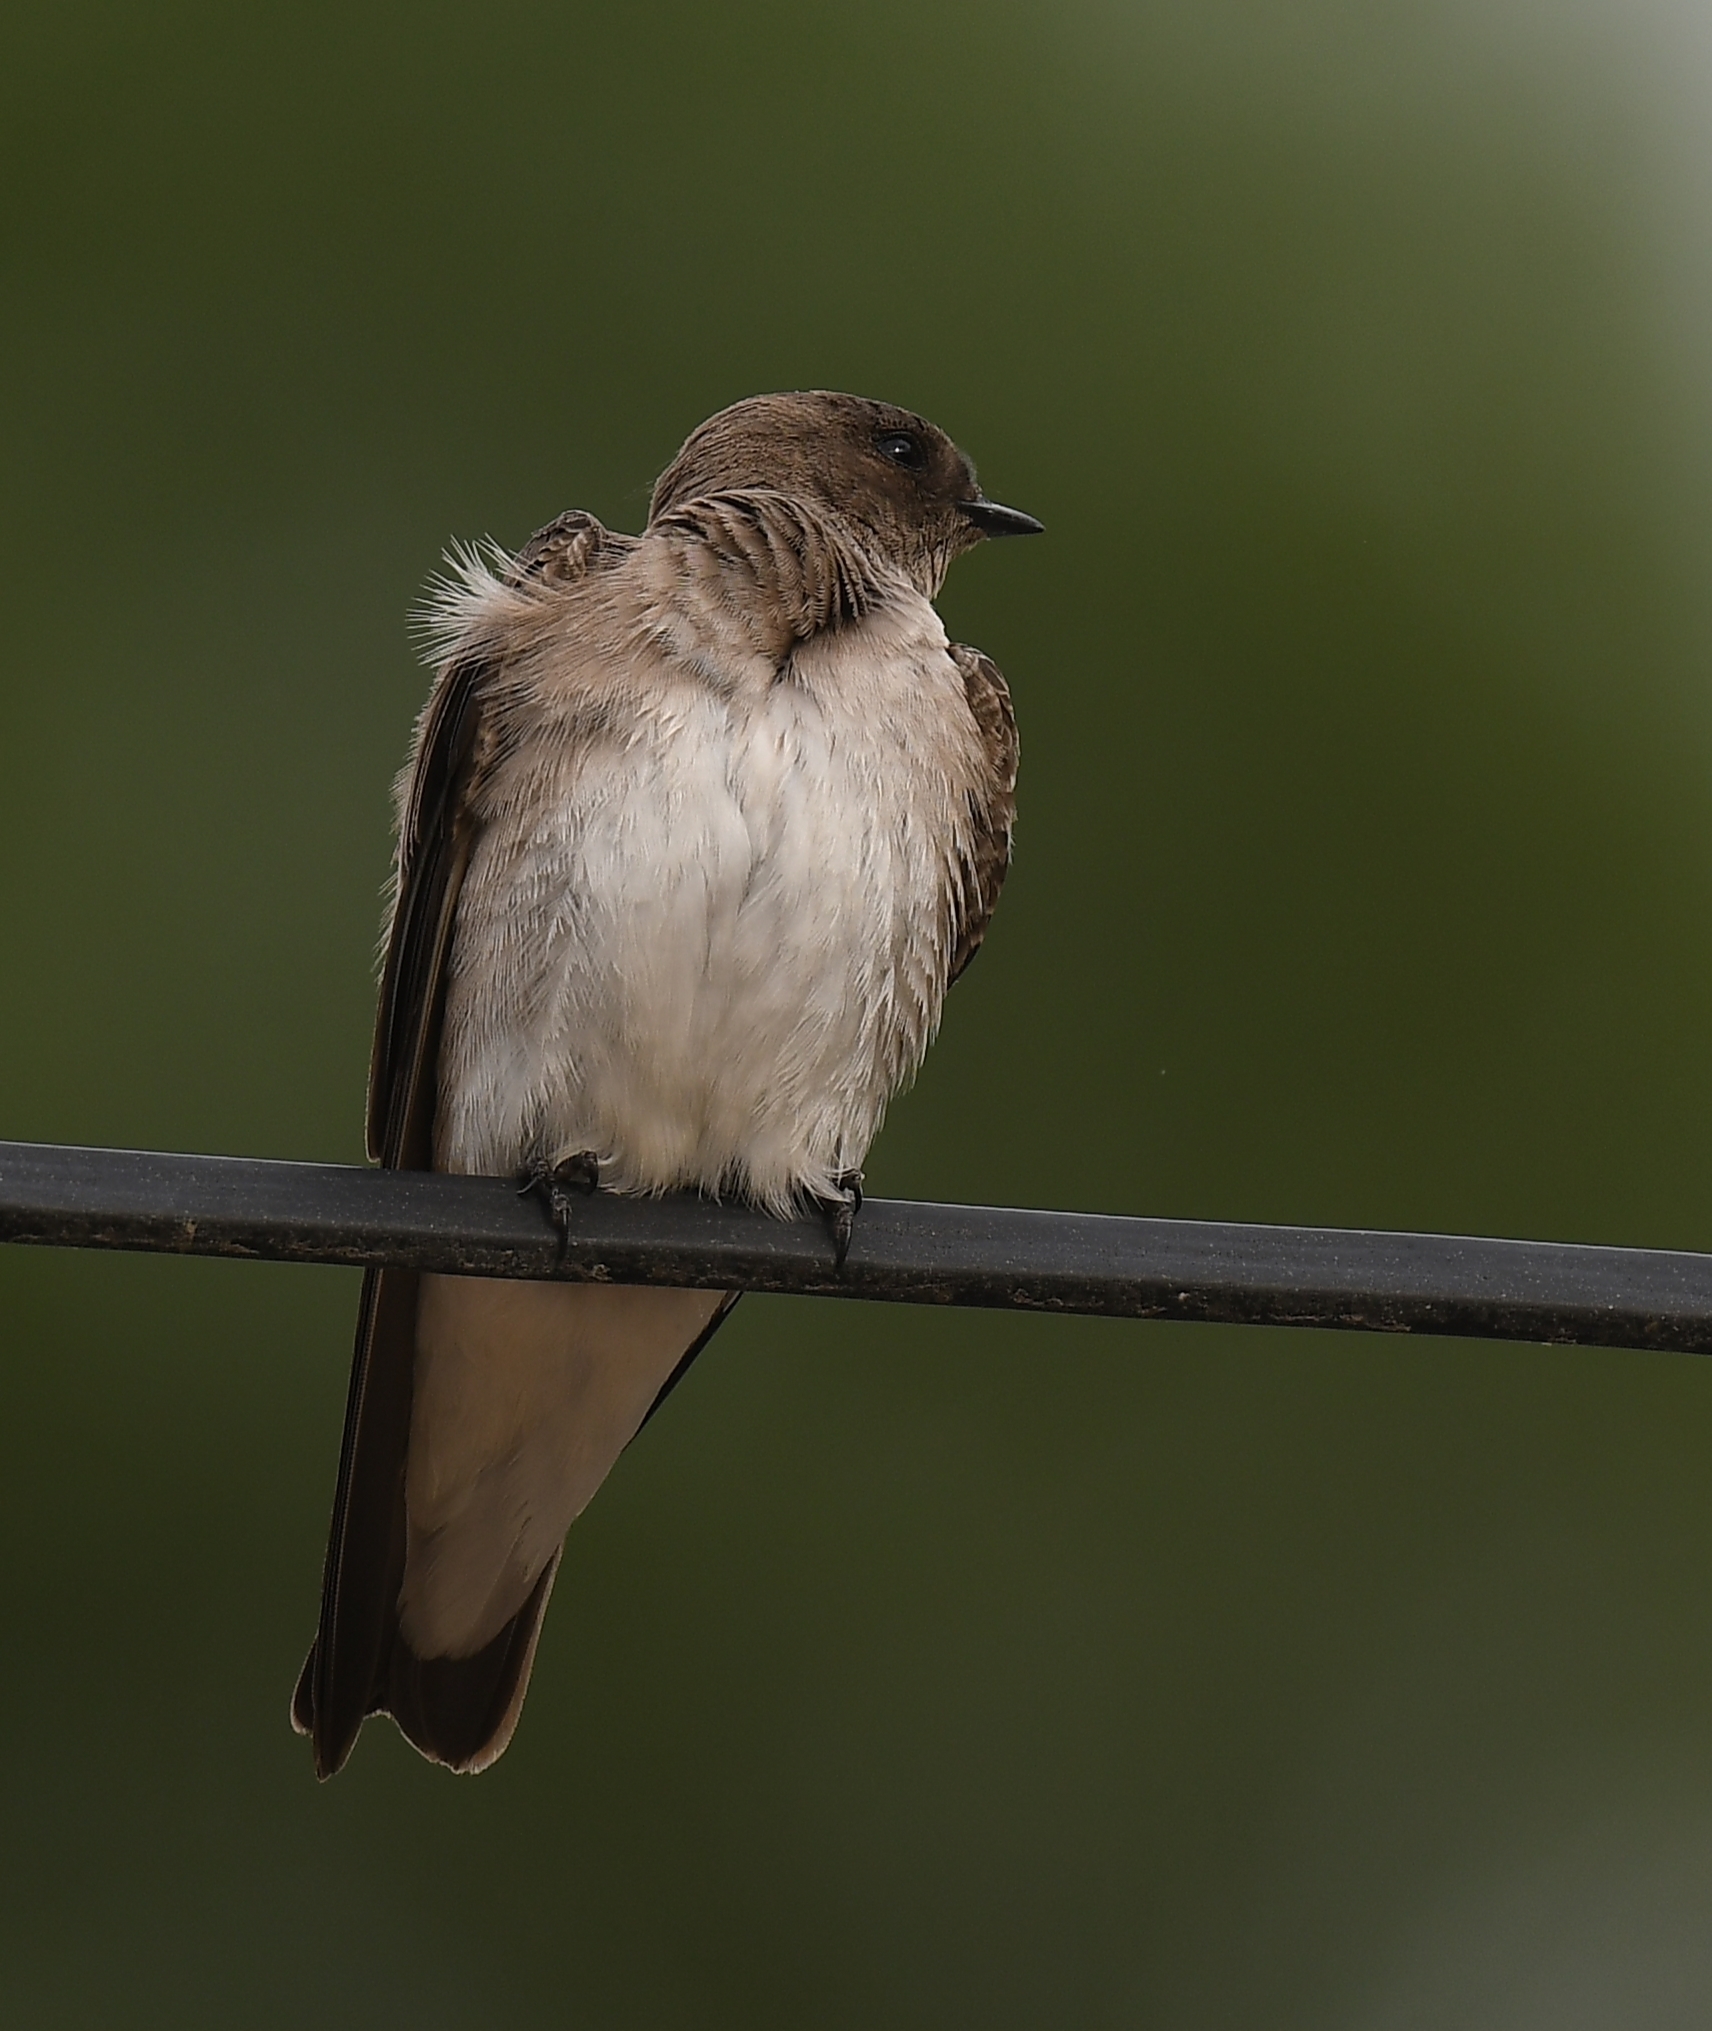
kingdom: Animalia
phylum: Chordata
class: Aves
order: Passeriformes
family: Hirundinidae
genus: Stelgidopteryx
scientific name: Stelgidopteryx serripennis
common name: Northern rough-winged swallow
